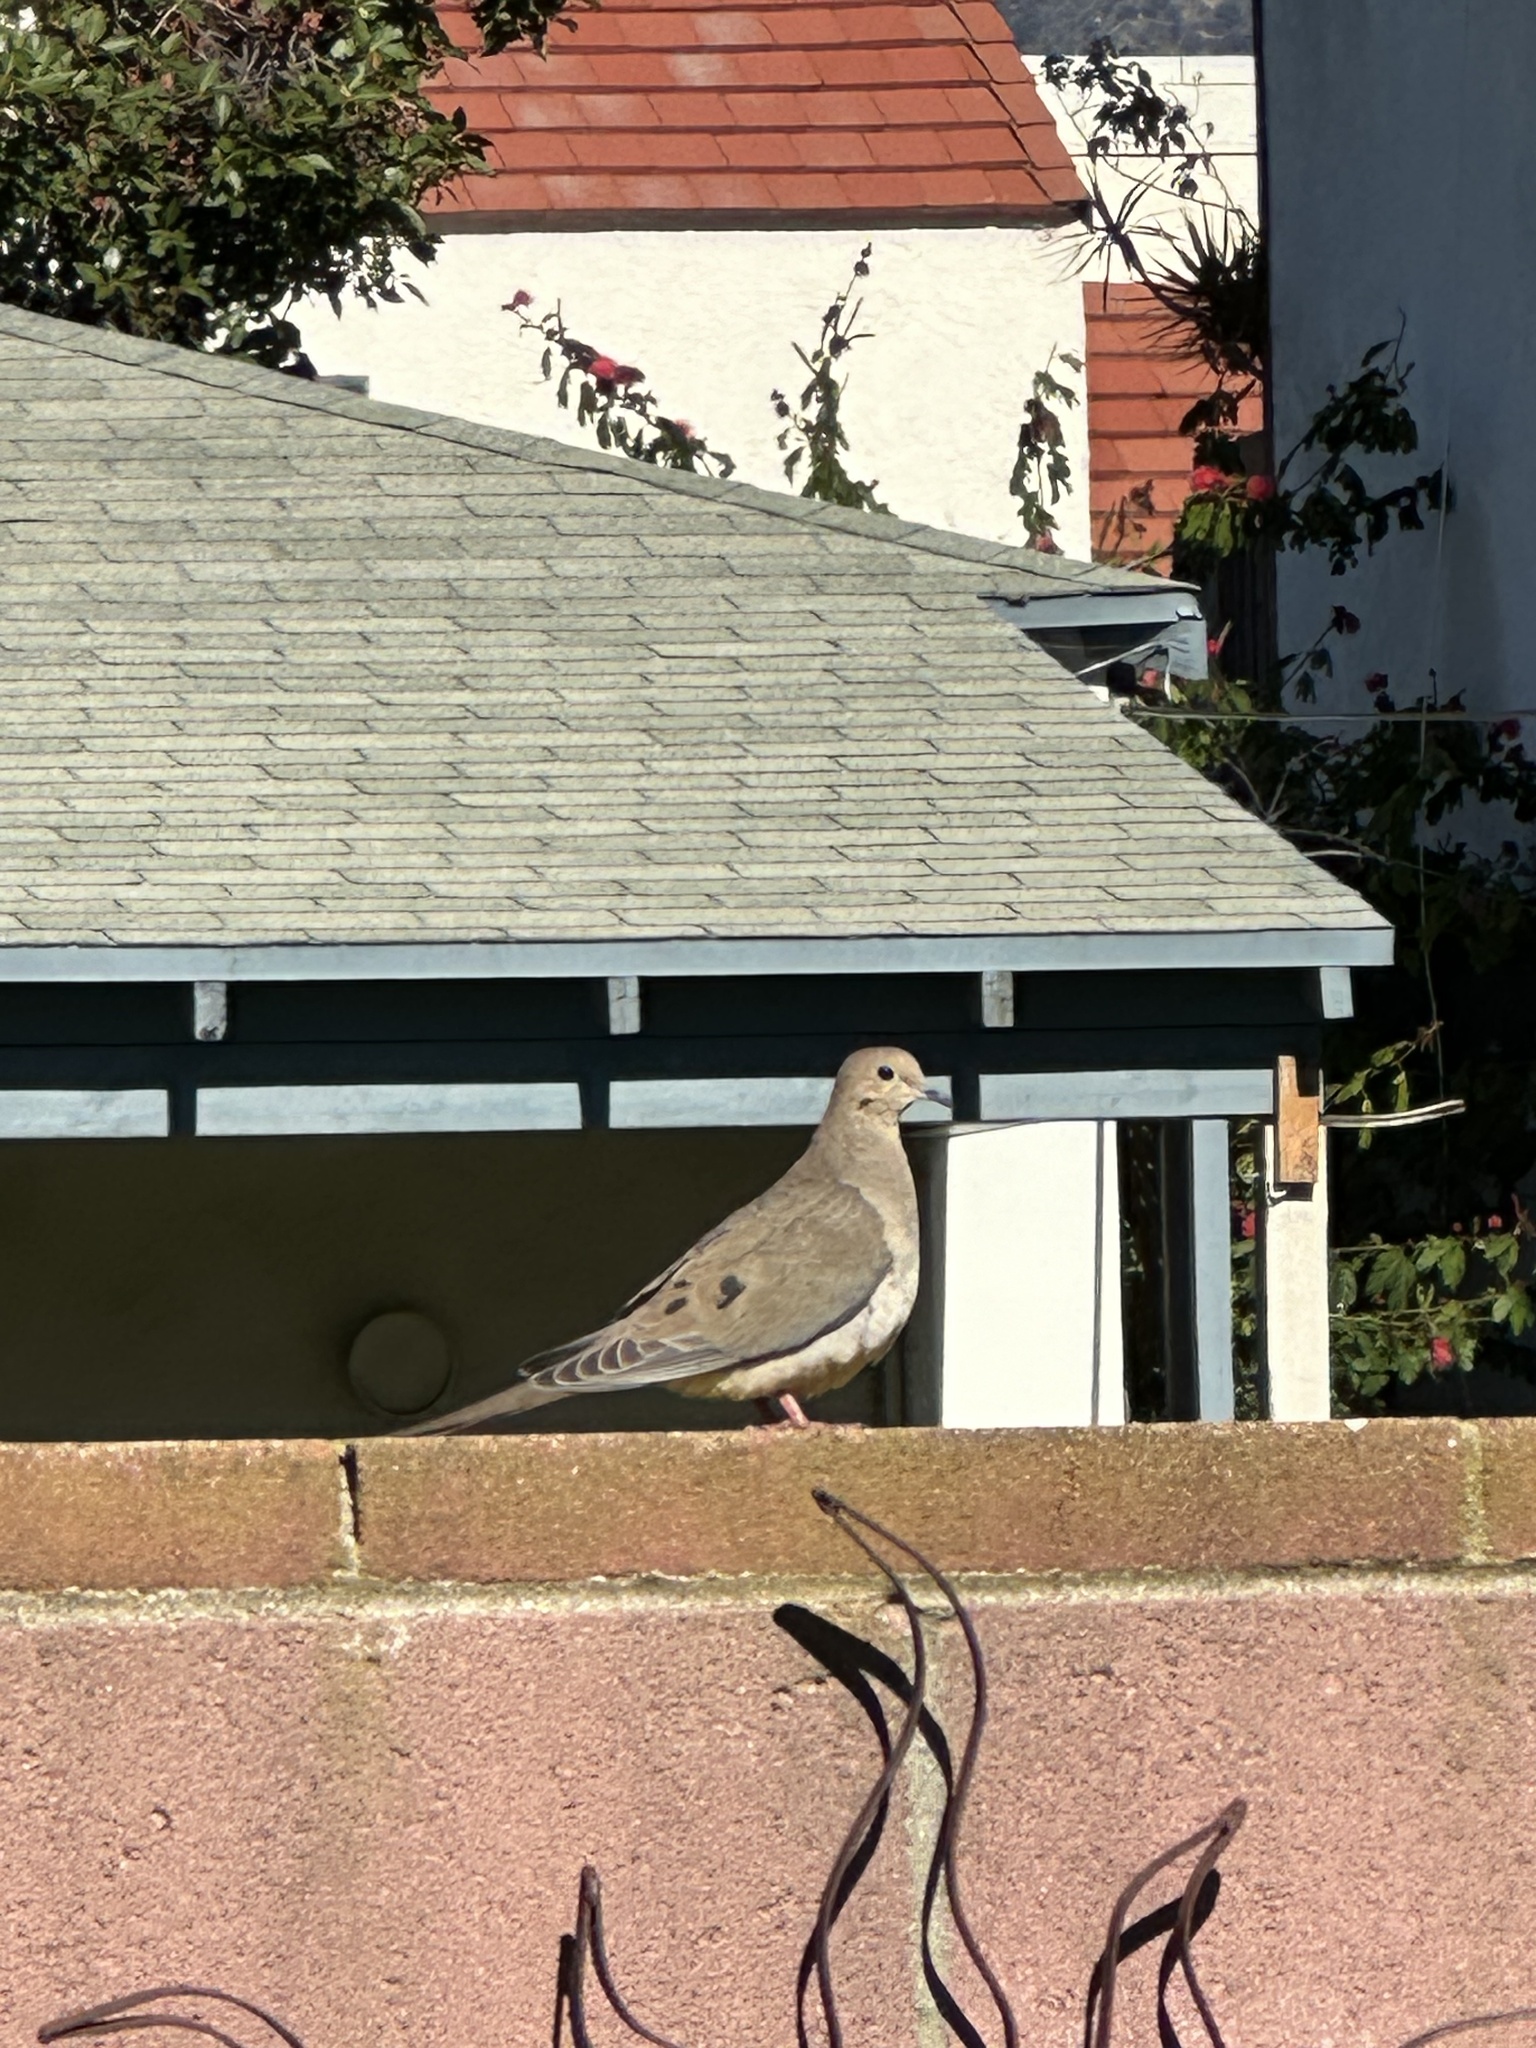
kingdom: Animalia
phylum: Chordata
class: Aves
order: Columbiformes
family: Columbidae
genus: Zenaida
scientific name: Zenaida macroura
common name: Mourning dove
